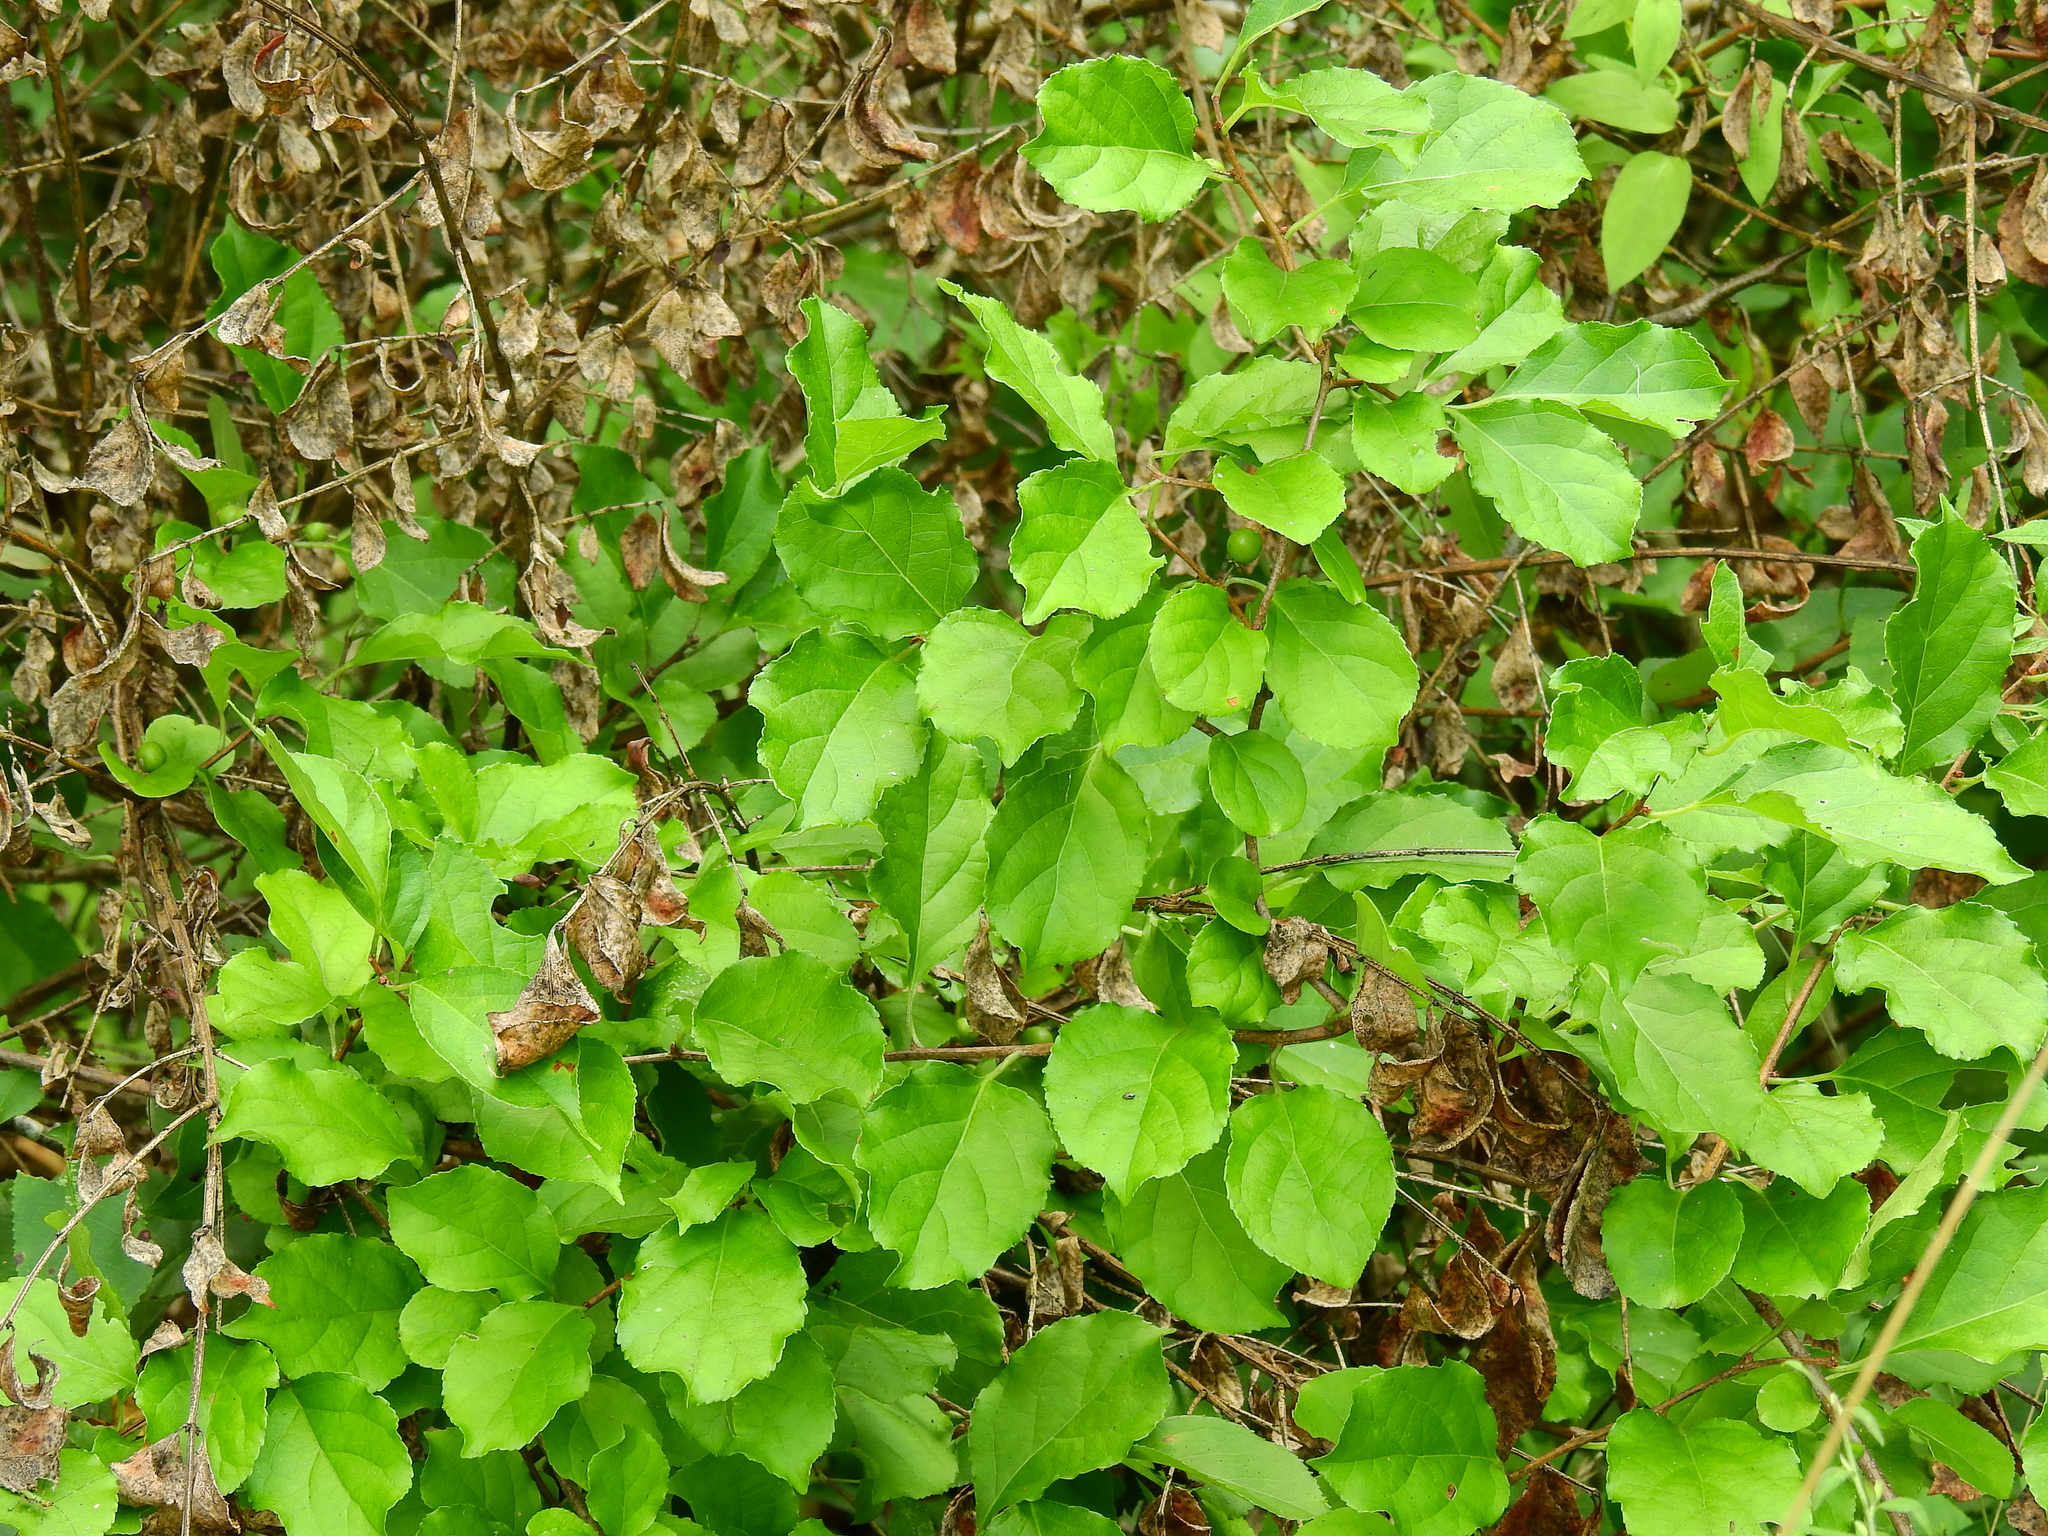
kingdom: Plantae
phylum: Tracheophyta
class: Magnoliopsida
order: Celastrales
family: Celastraceae
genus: Celastrus
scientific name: Celastrus orbiculatus
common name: Oriental bittersweet
